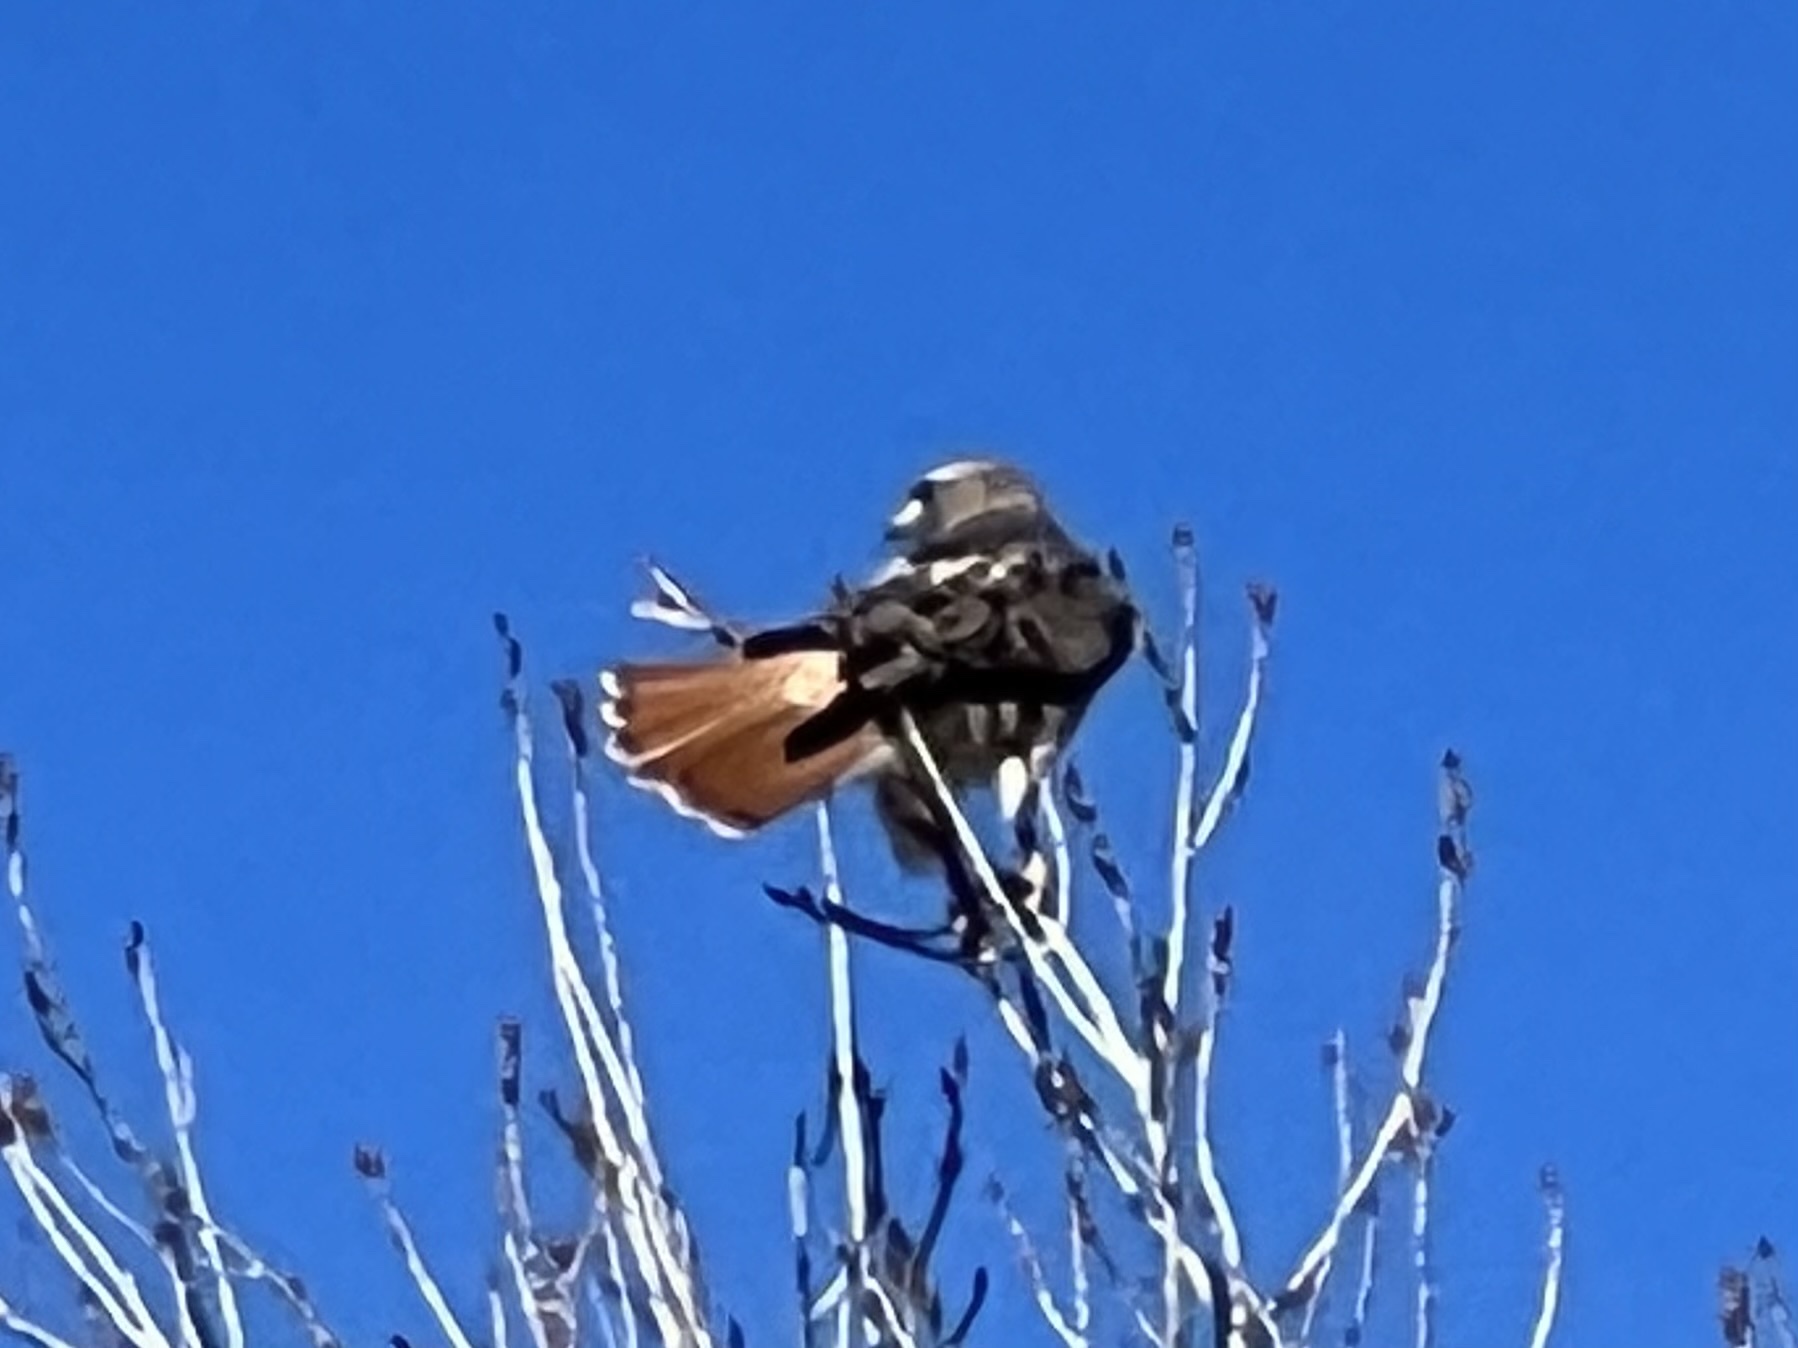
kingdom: Animalia
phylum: Chordata
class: Aves
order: Accipitriformes
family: Accipitridae
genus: Buteo
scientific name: Buteo jamaicensis
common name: Red-tailed hawk
